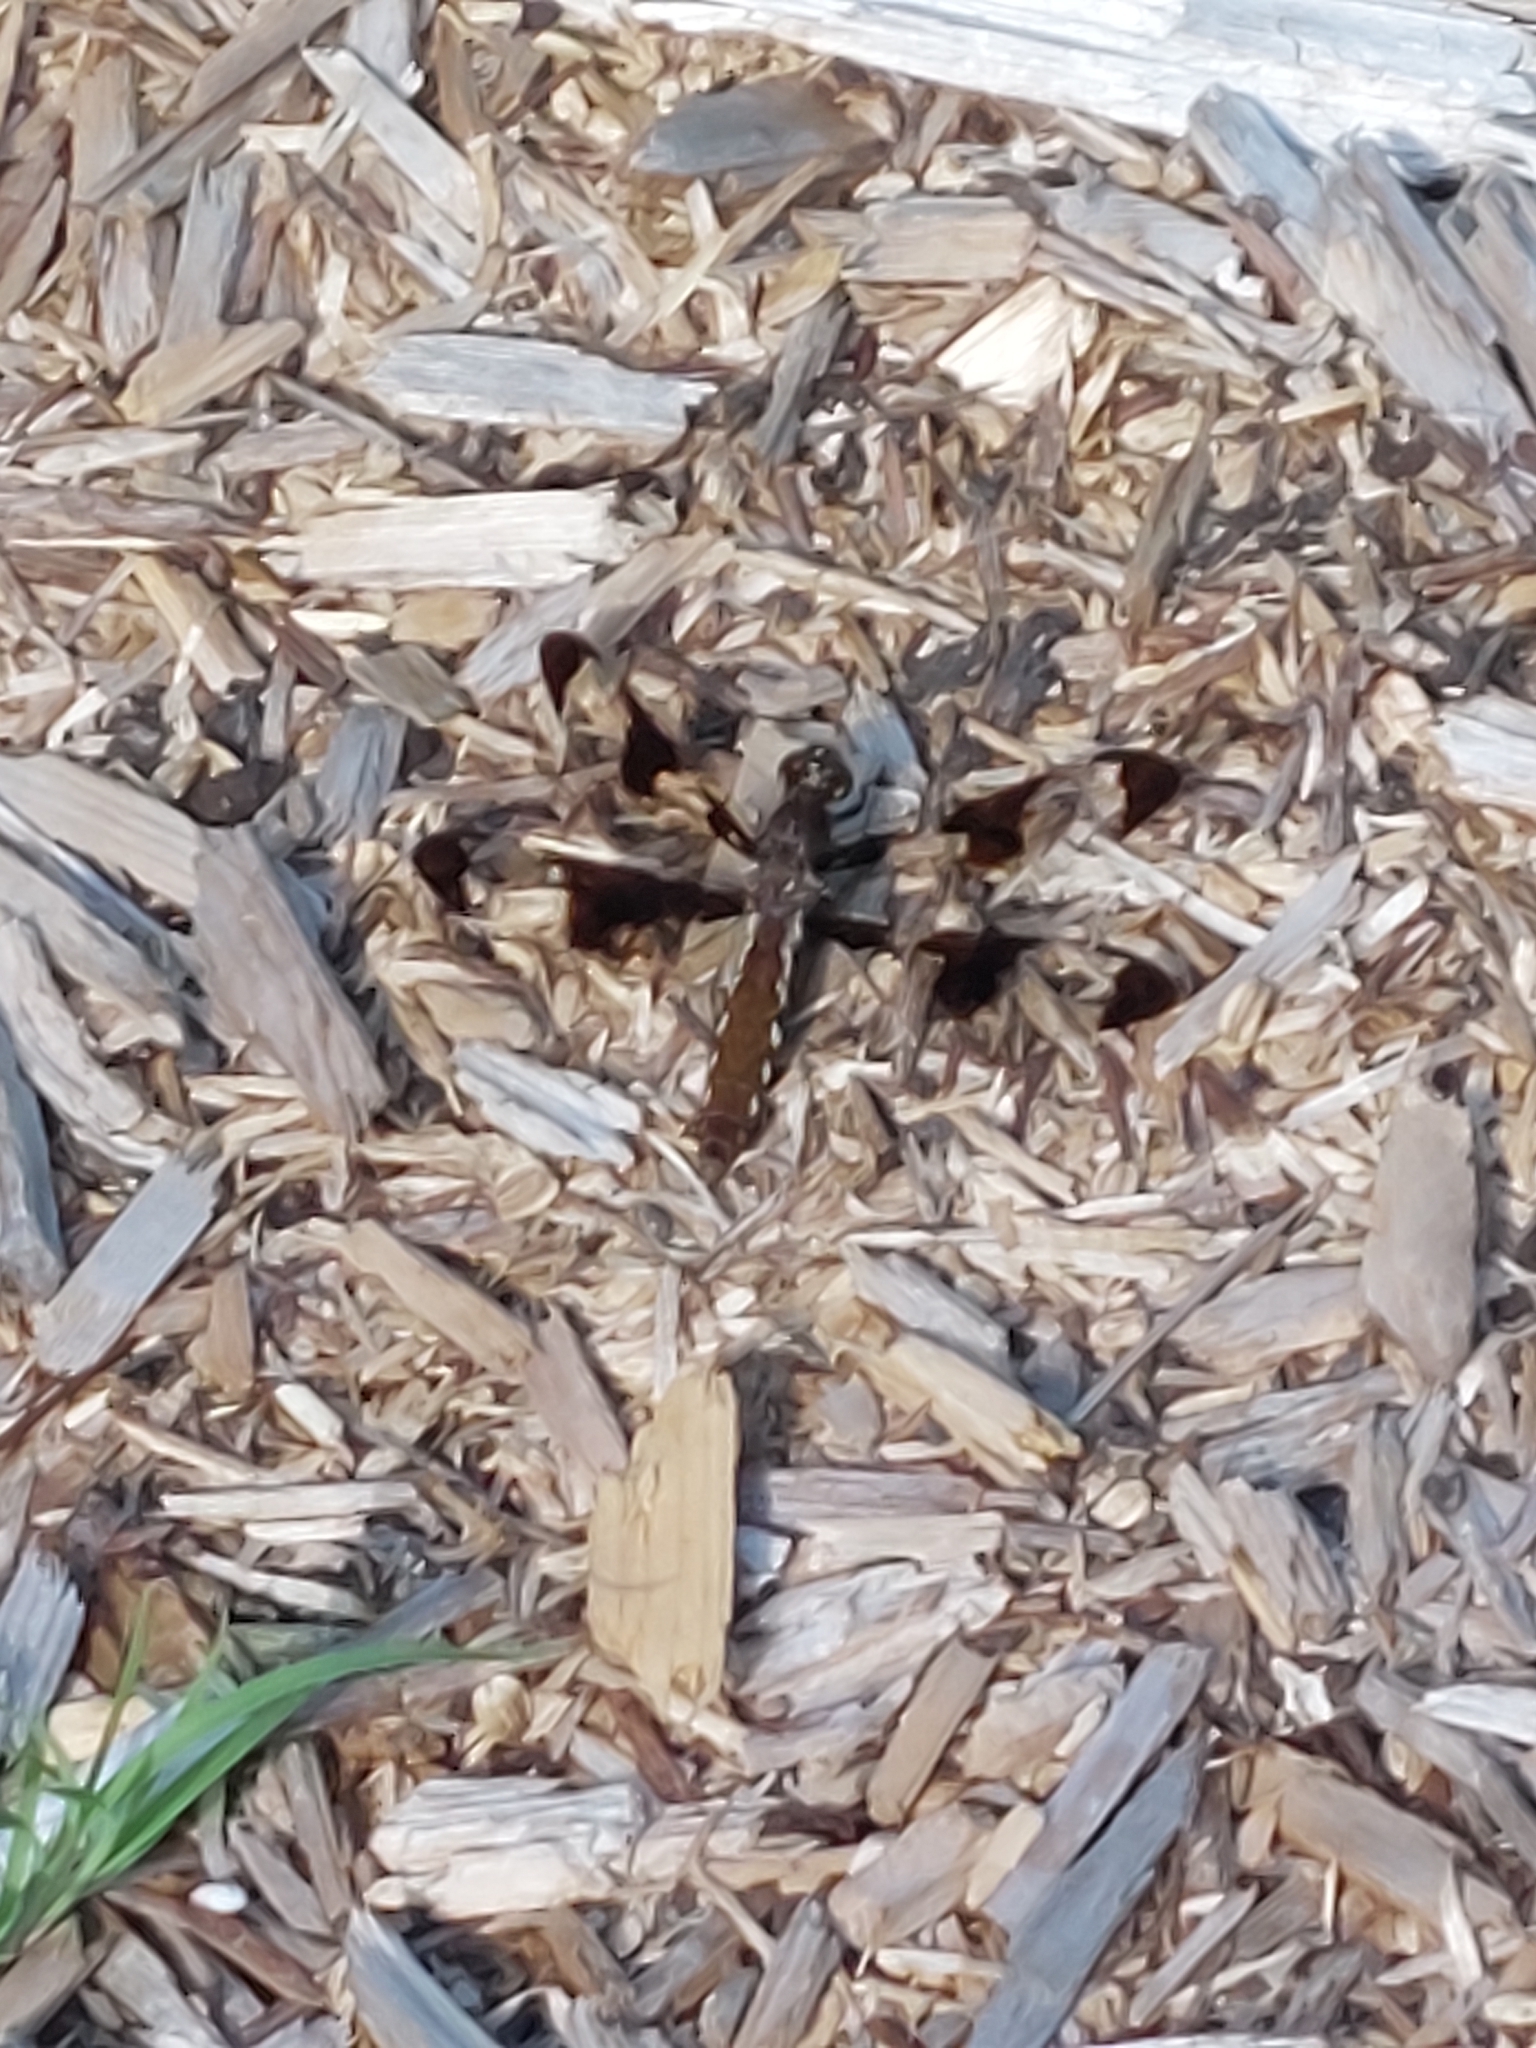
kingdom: Animalia
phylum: Arthropoda
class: Insecta
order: Odonata
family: Libellulidae
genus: Plathemis
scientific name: Plathemis lydia
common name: Common whitetail
